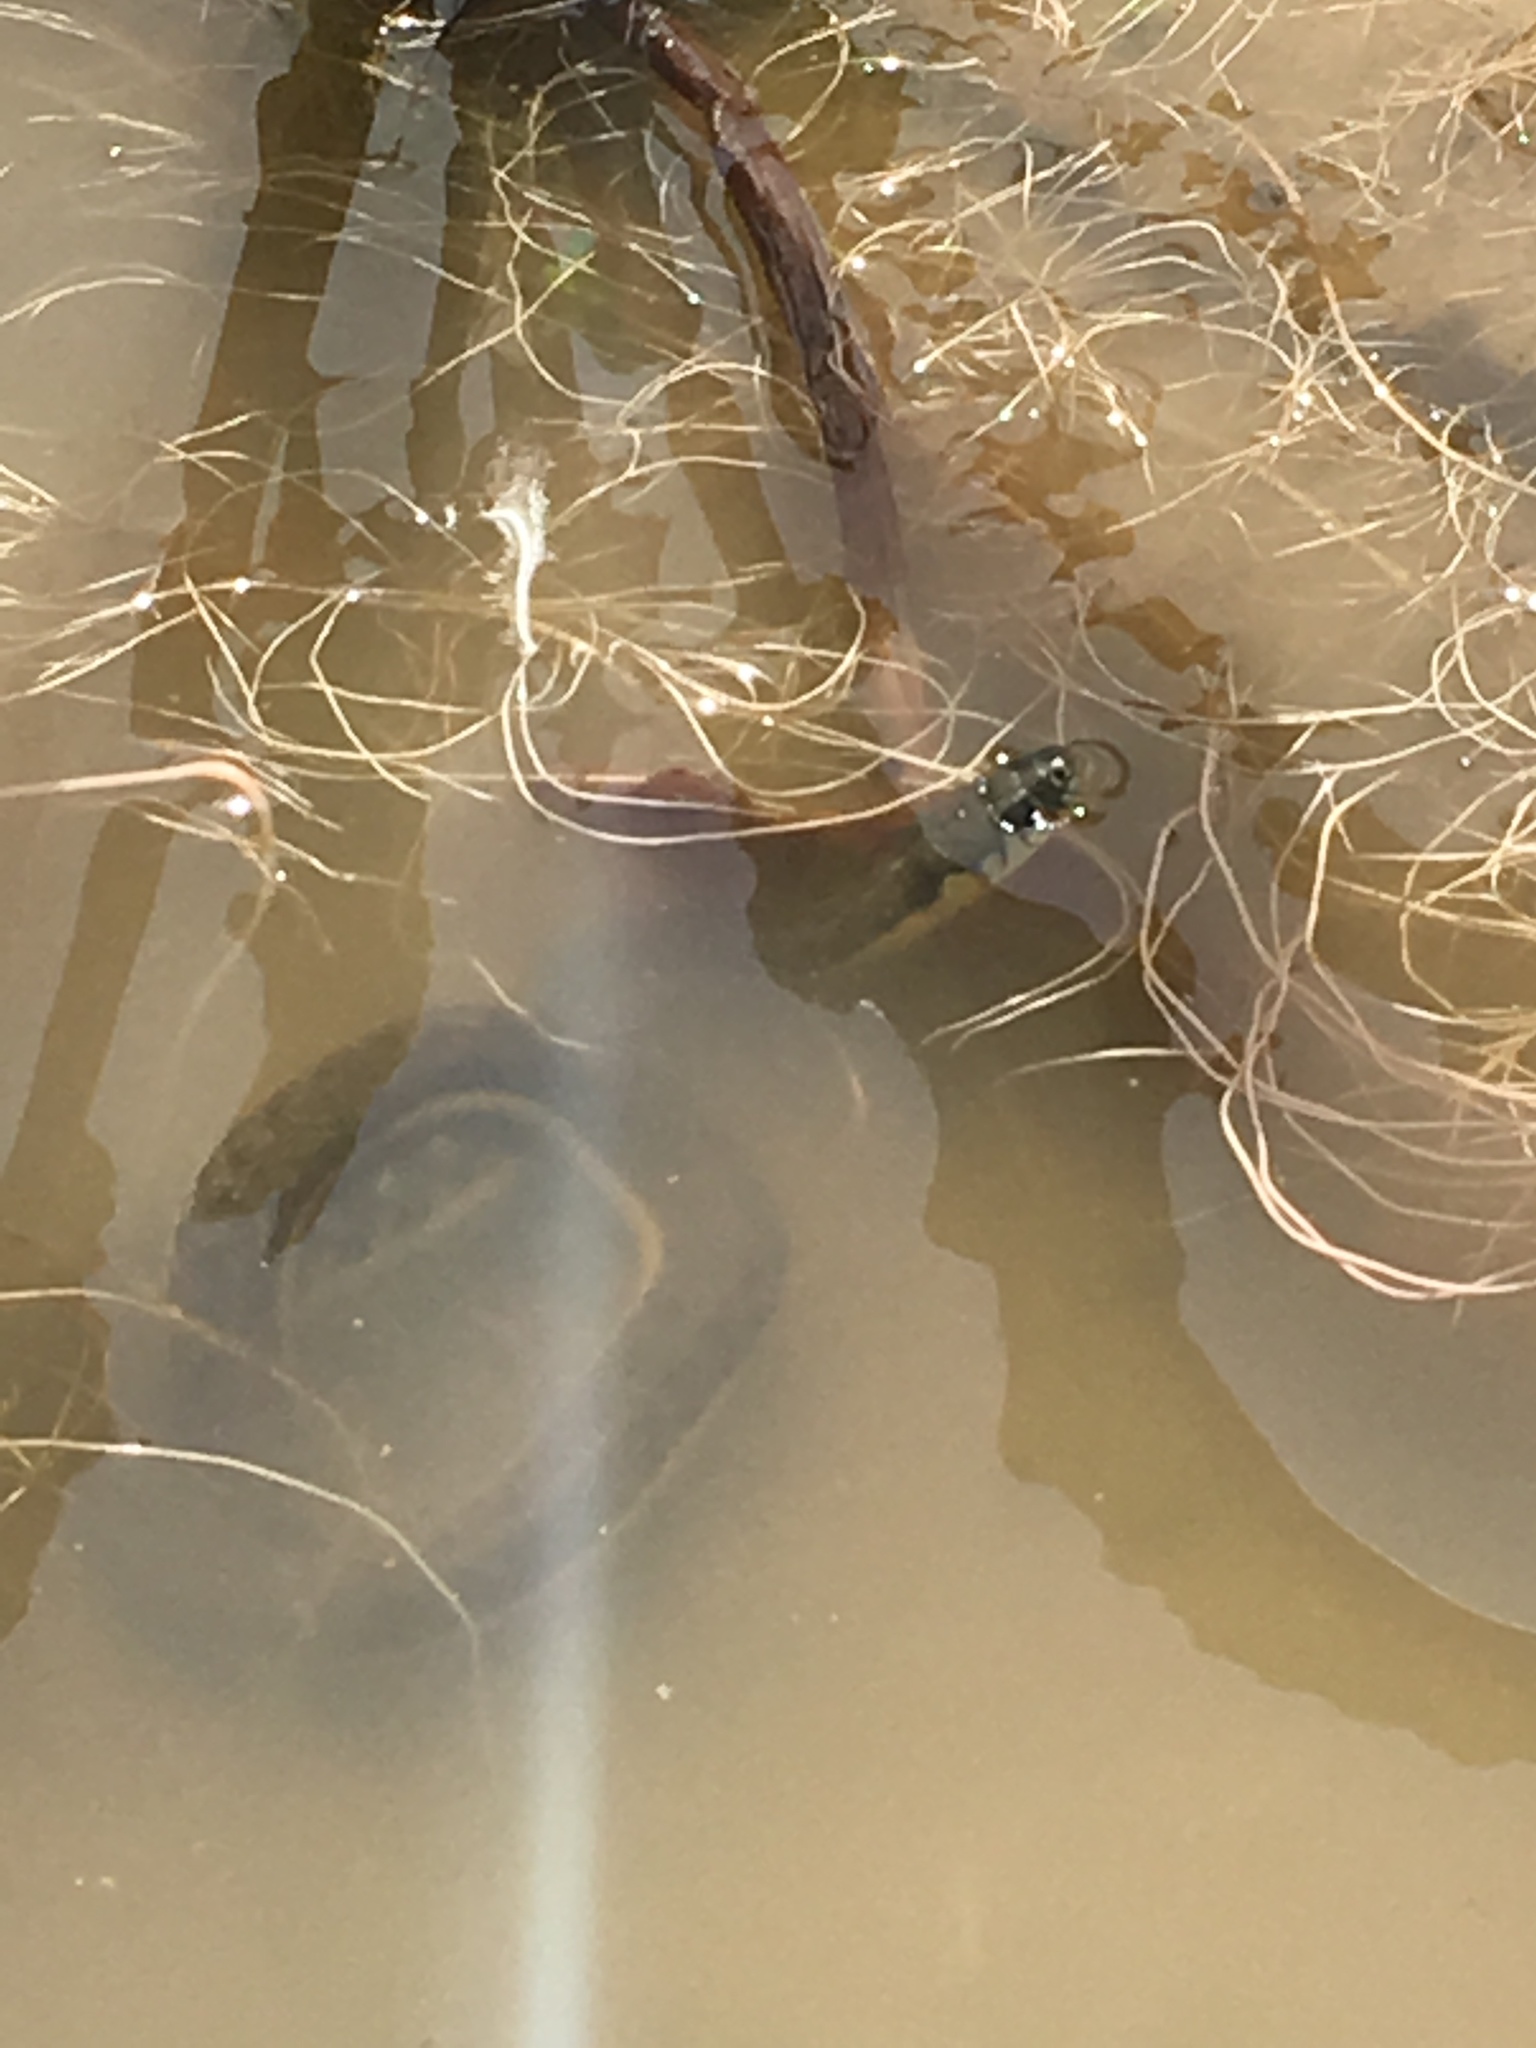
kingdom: Animalia
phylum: Chordata
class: Squamata
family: Colubridae
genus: Thamnophis
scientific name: Thamnophis hammondii
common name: Two-striped garter snake
